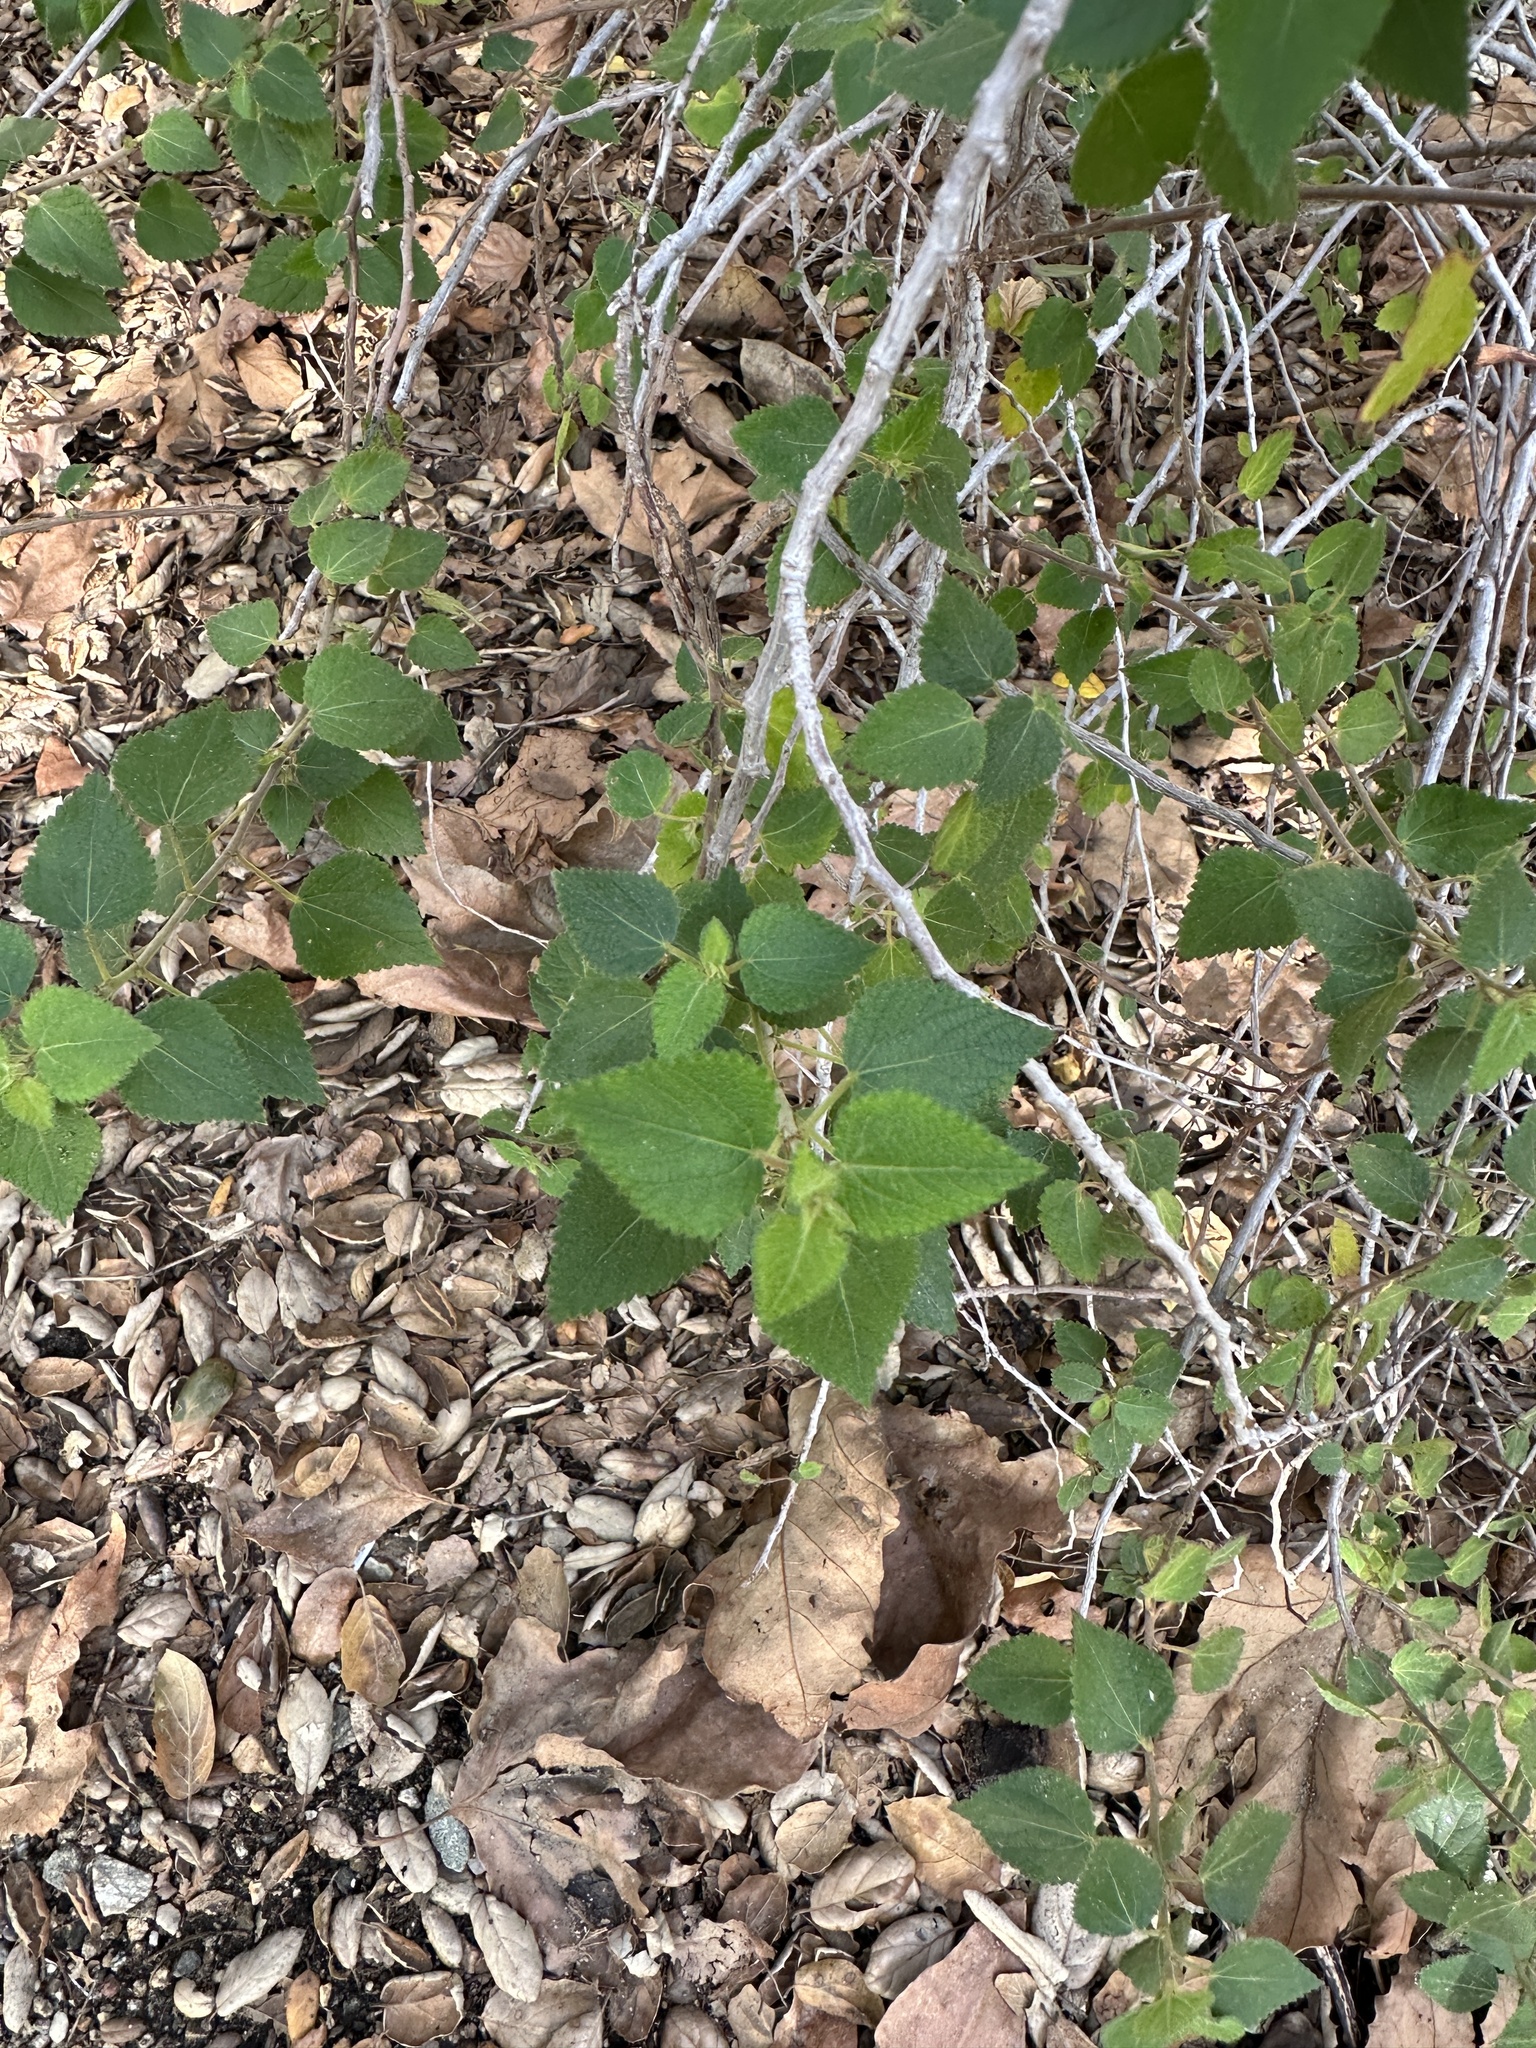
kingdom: Plantae
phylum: Tracheophyta
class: Magnoliopsida
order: Malpighiales
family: Euphorbiaceae
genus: Acalypha
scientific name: Acalypha californica
